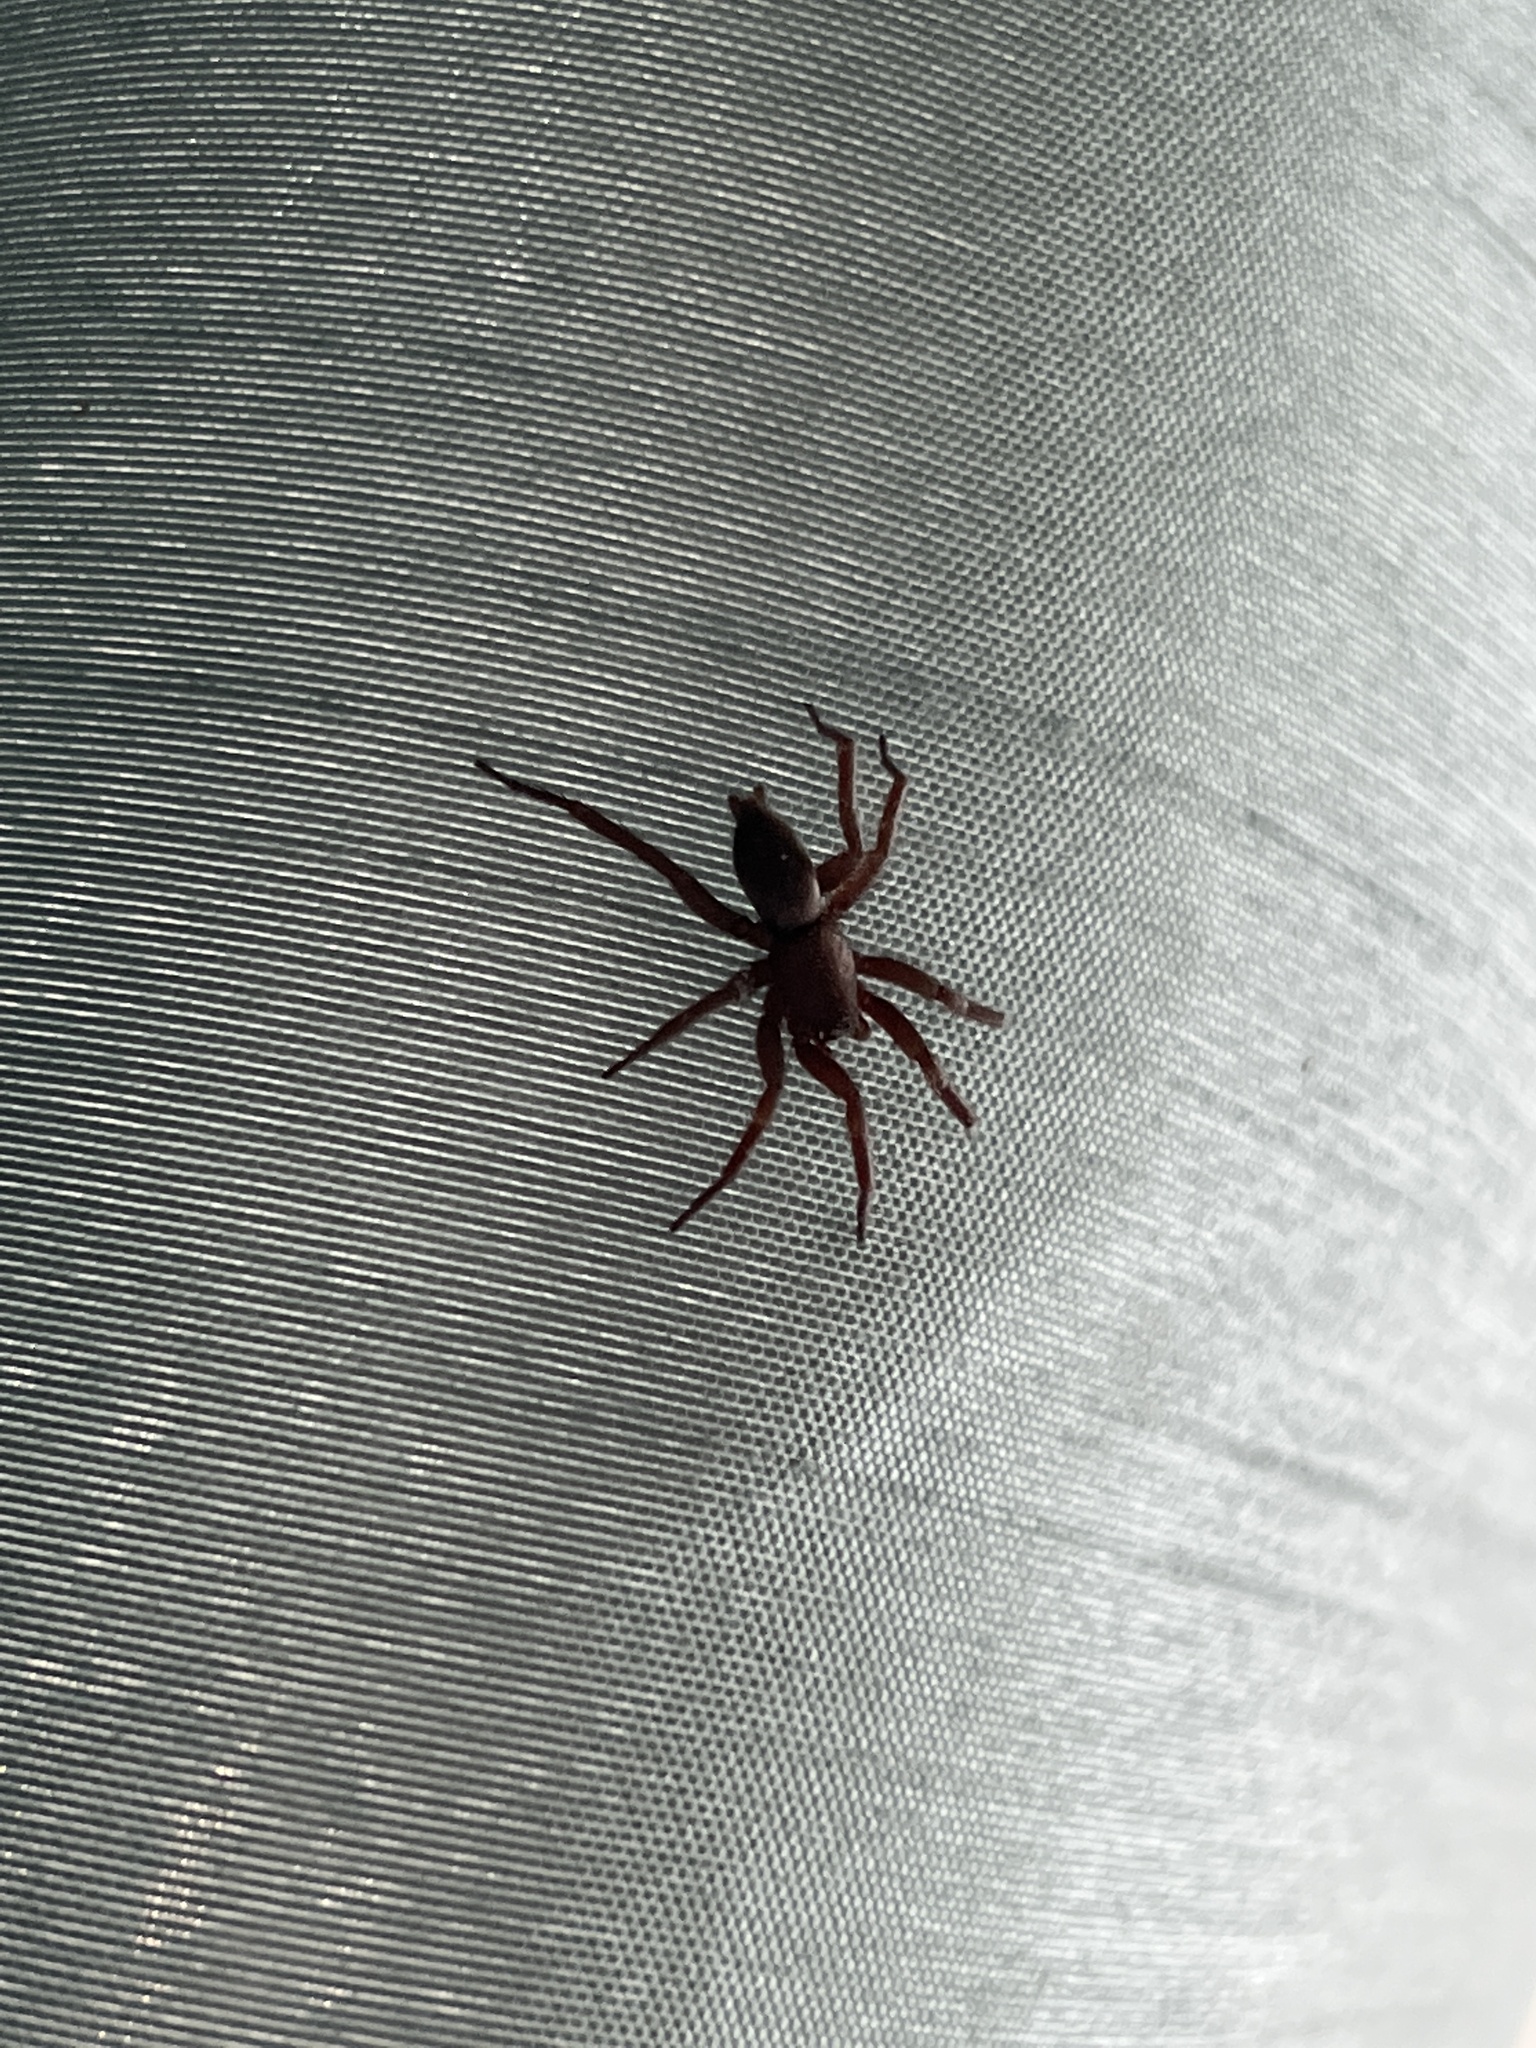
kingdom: Animalia
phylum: Arthropoda
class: Arachnida
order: Araneae
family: Gnaphosidae
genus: Scotophaeus
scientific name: Scotophaeus blackwalli
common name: Mouse spider
